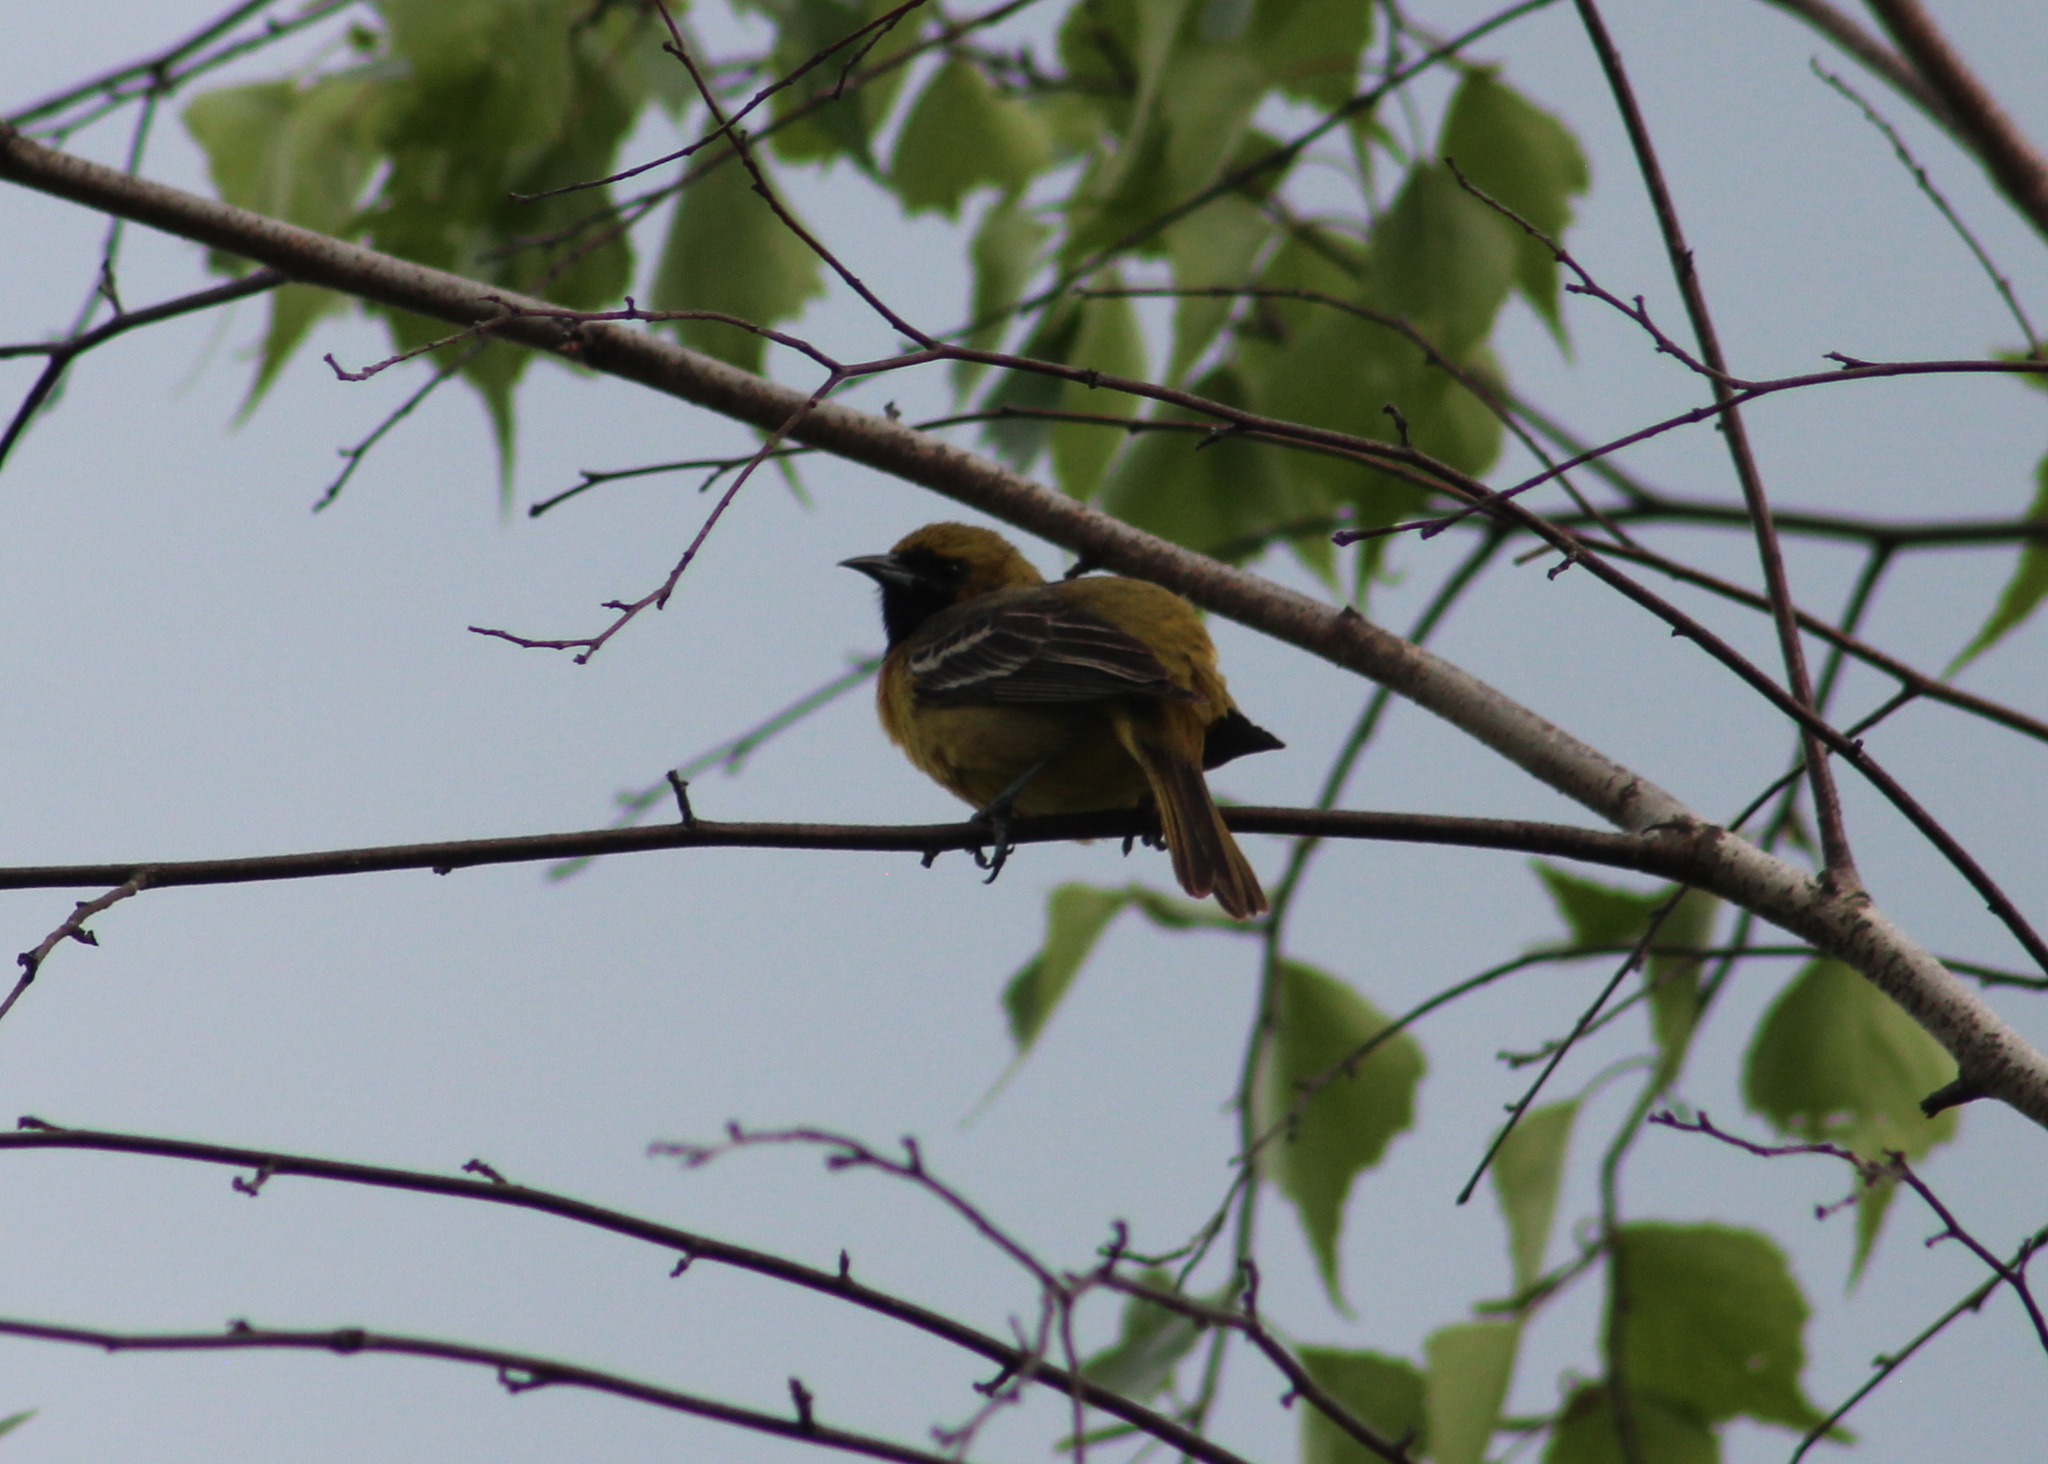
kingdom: Animalia
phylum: Chordata
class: Aves
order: Passeriformes
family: Icteridae
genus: Icterus
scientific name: Icterus spurius
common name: Orchard oriole
